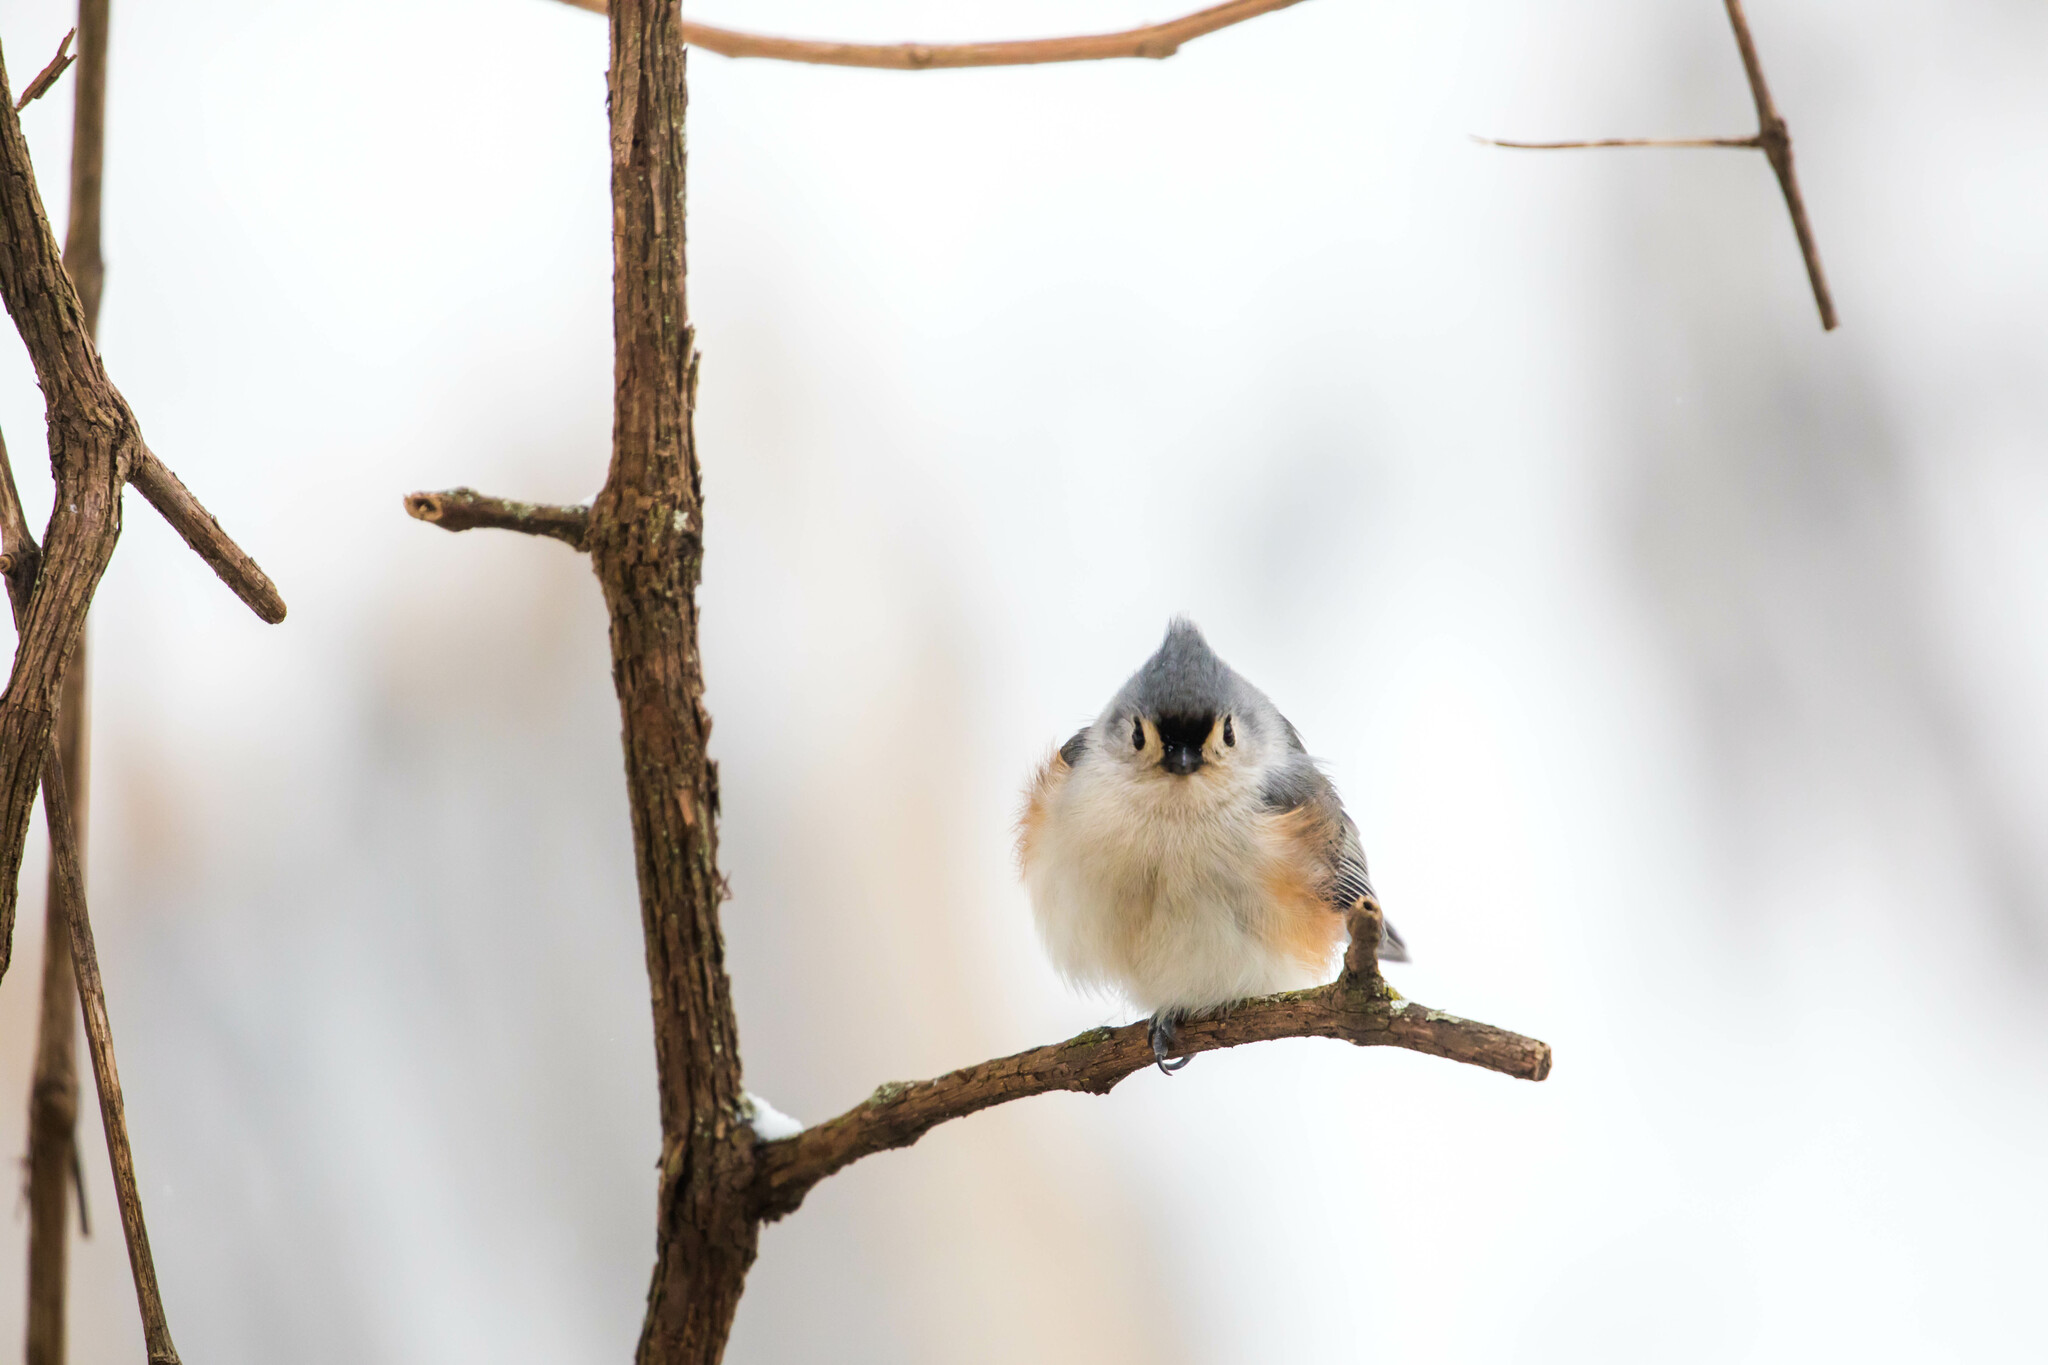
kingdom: Animalia
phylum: Chordata
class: Aves
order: Passeriformes
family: Paridae
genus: Baeolophus
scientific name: Baeolophus bicolor
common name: Tufted titmouse
